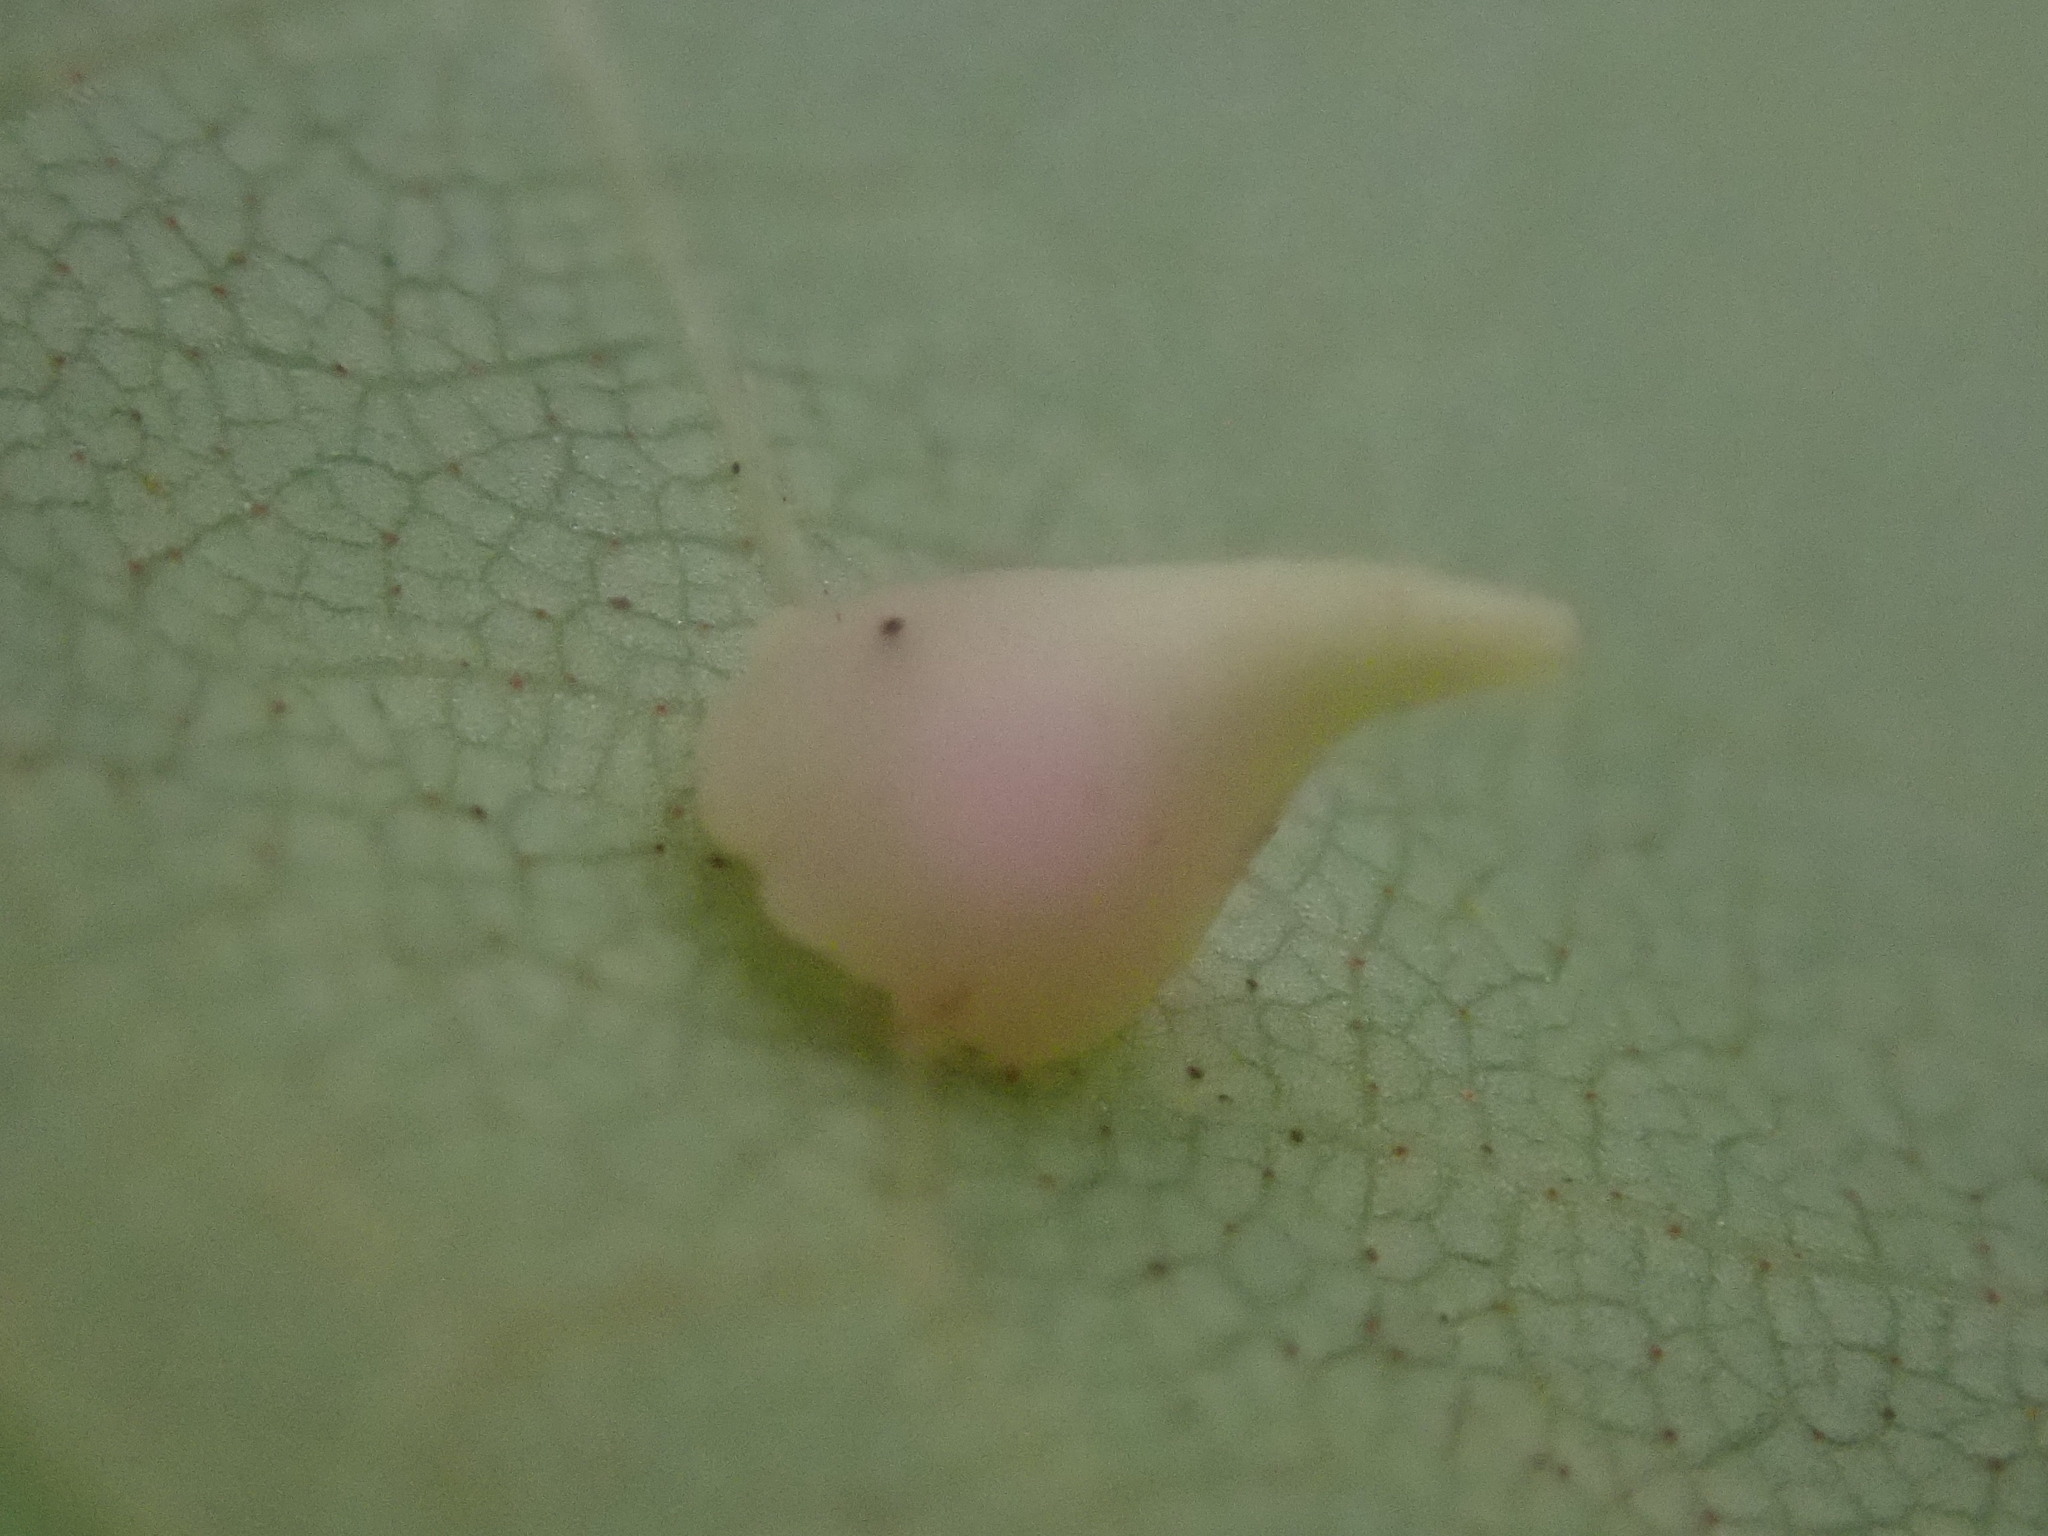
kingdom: Animalia
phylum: Arthropoda
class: Insecta
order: Diptera
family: Cecidomyiidae
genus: Caryomyia
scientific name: Caryomyia sanguinolenta
